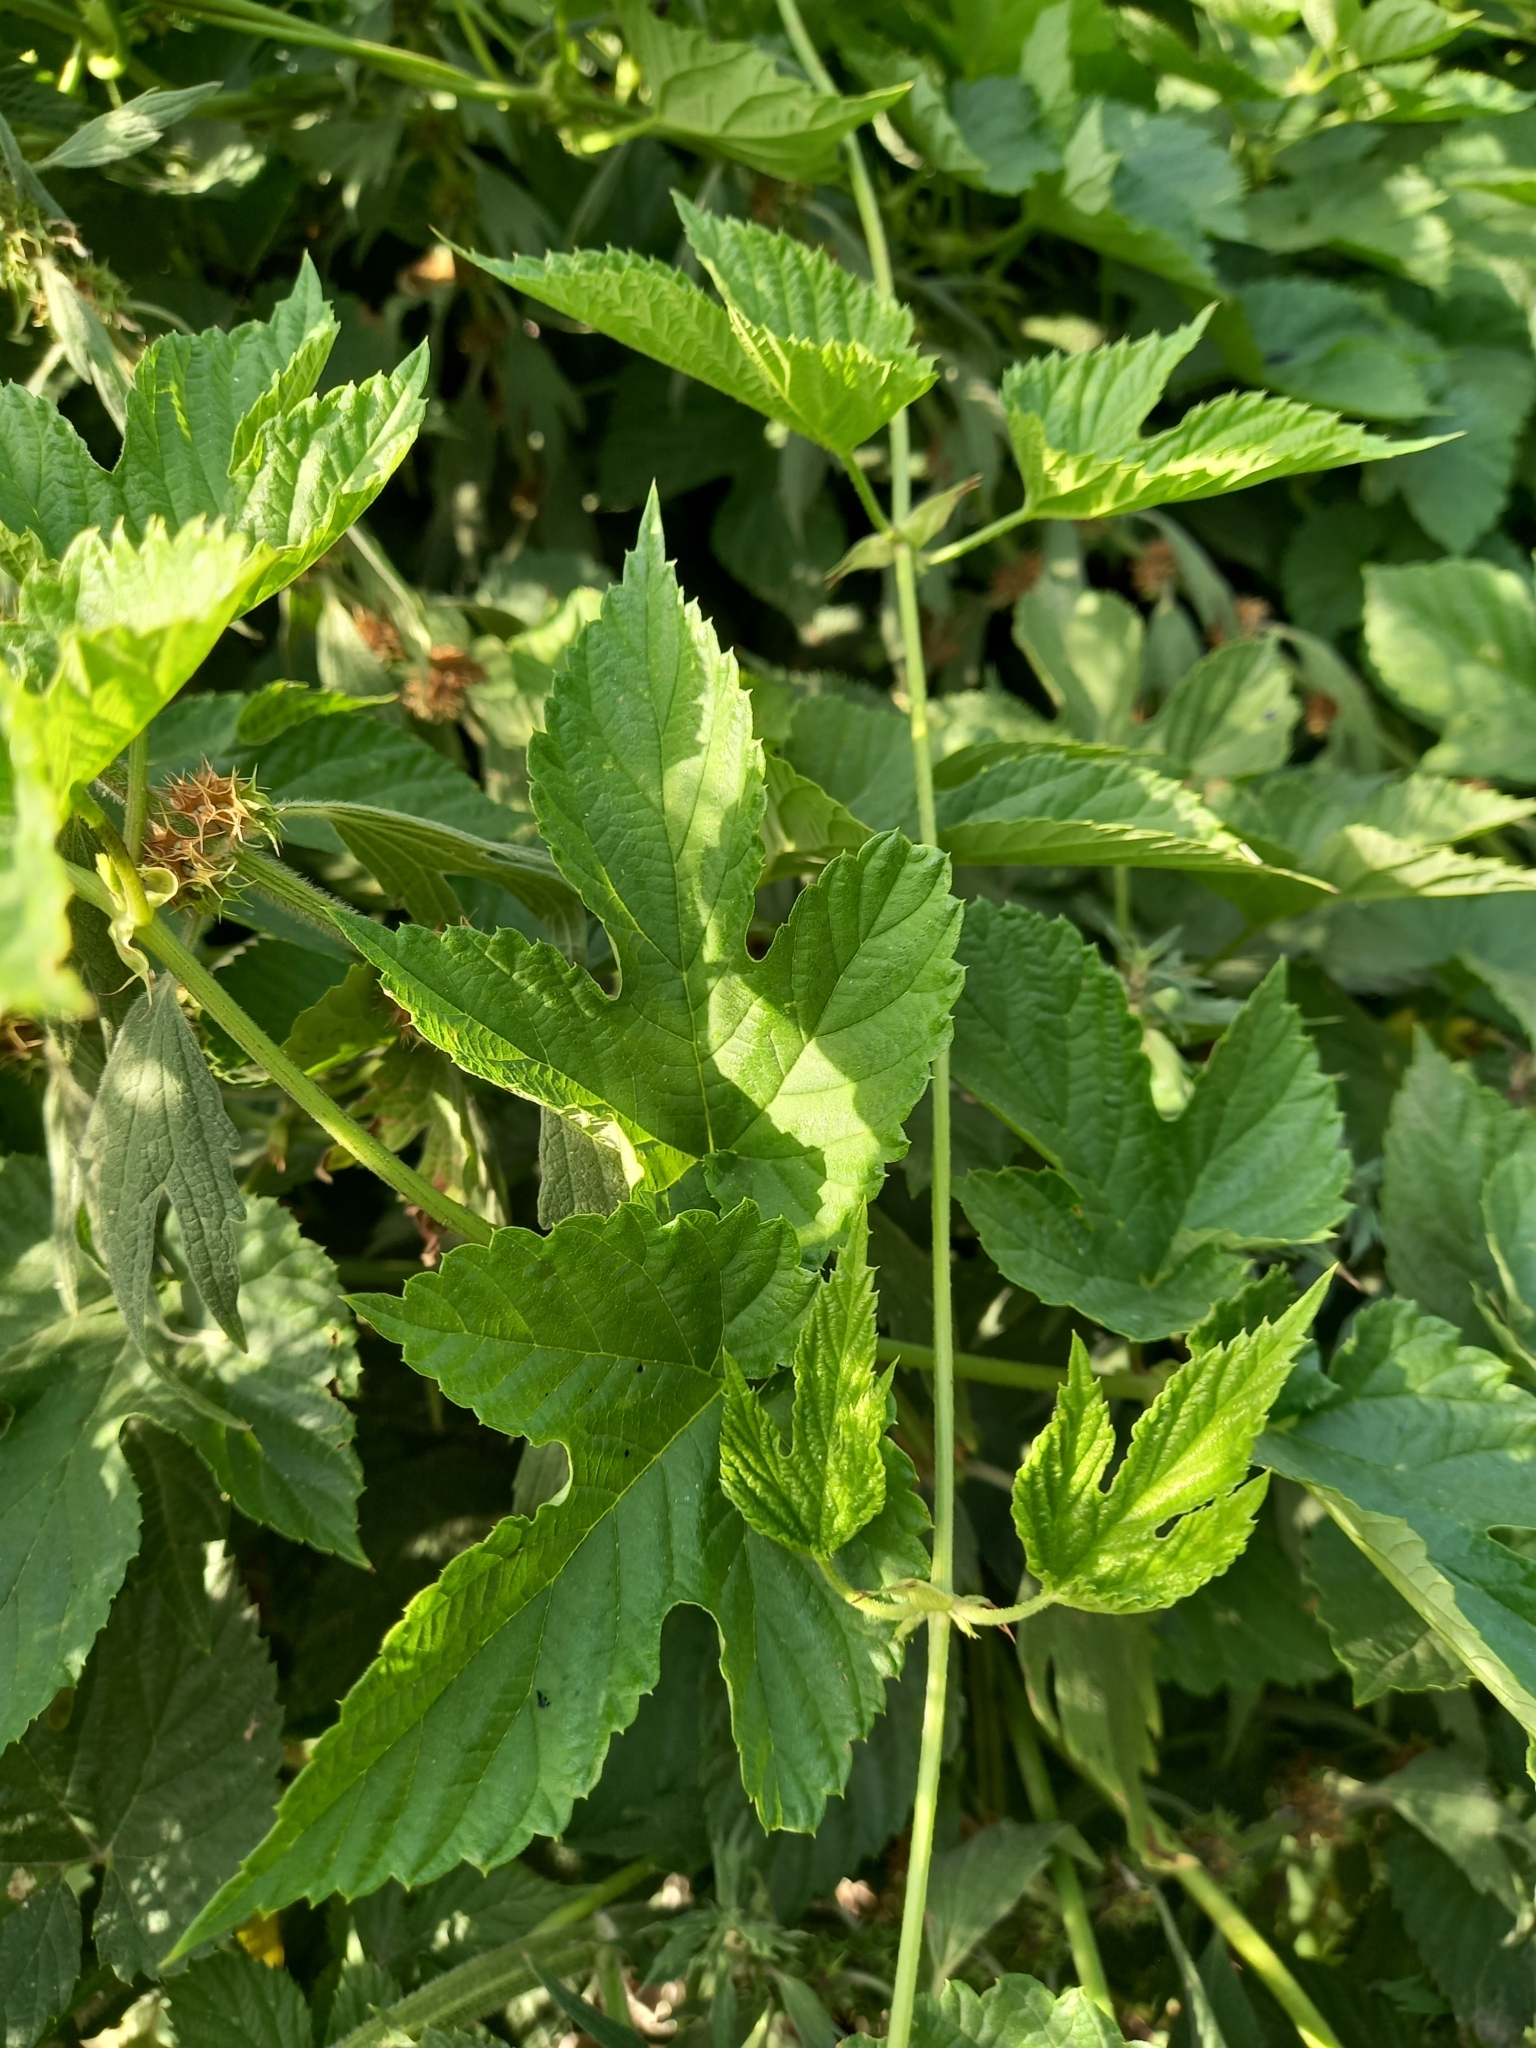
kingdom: Plantae
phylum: Tracheophyta
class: Magnoliopsida
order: Rosales
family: Cannabaceae
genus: Humulus
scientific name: Humulus lupulus
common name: Hop
